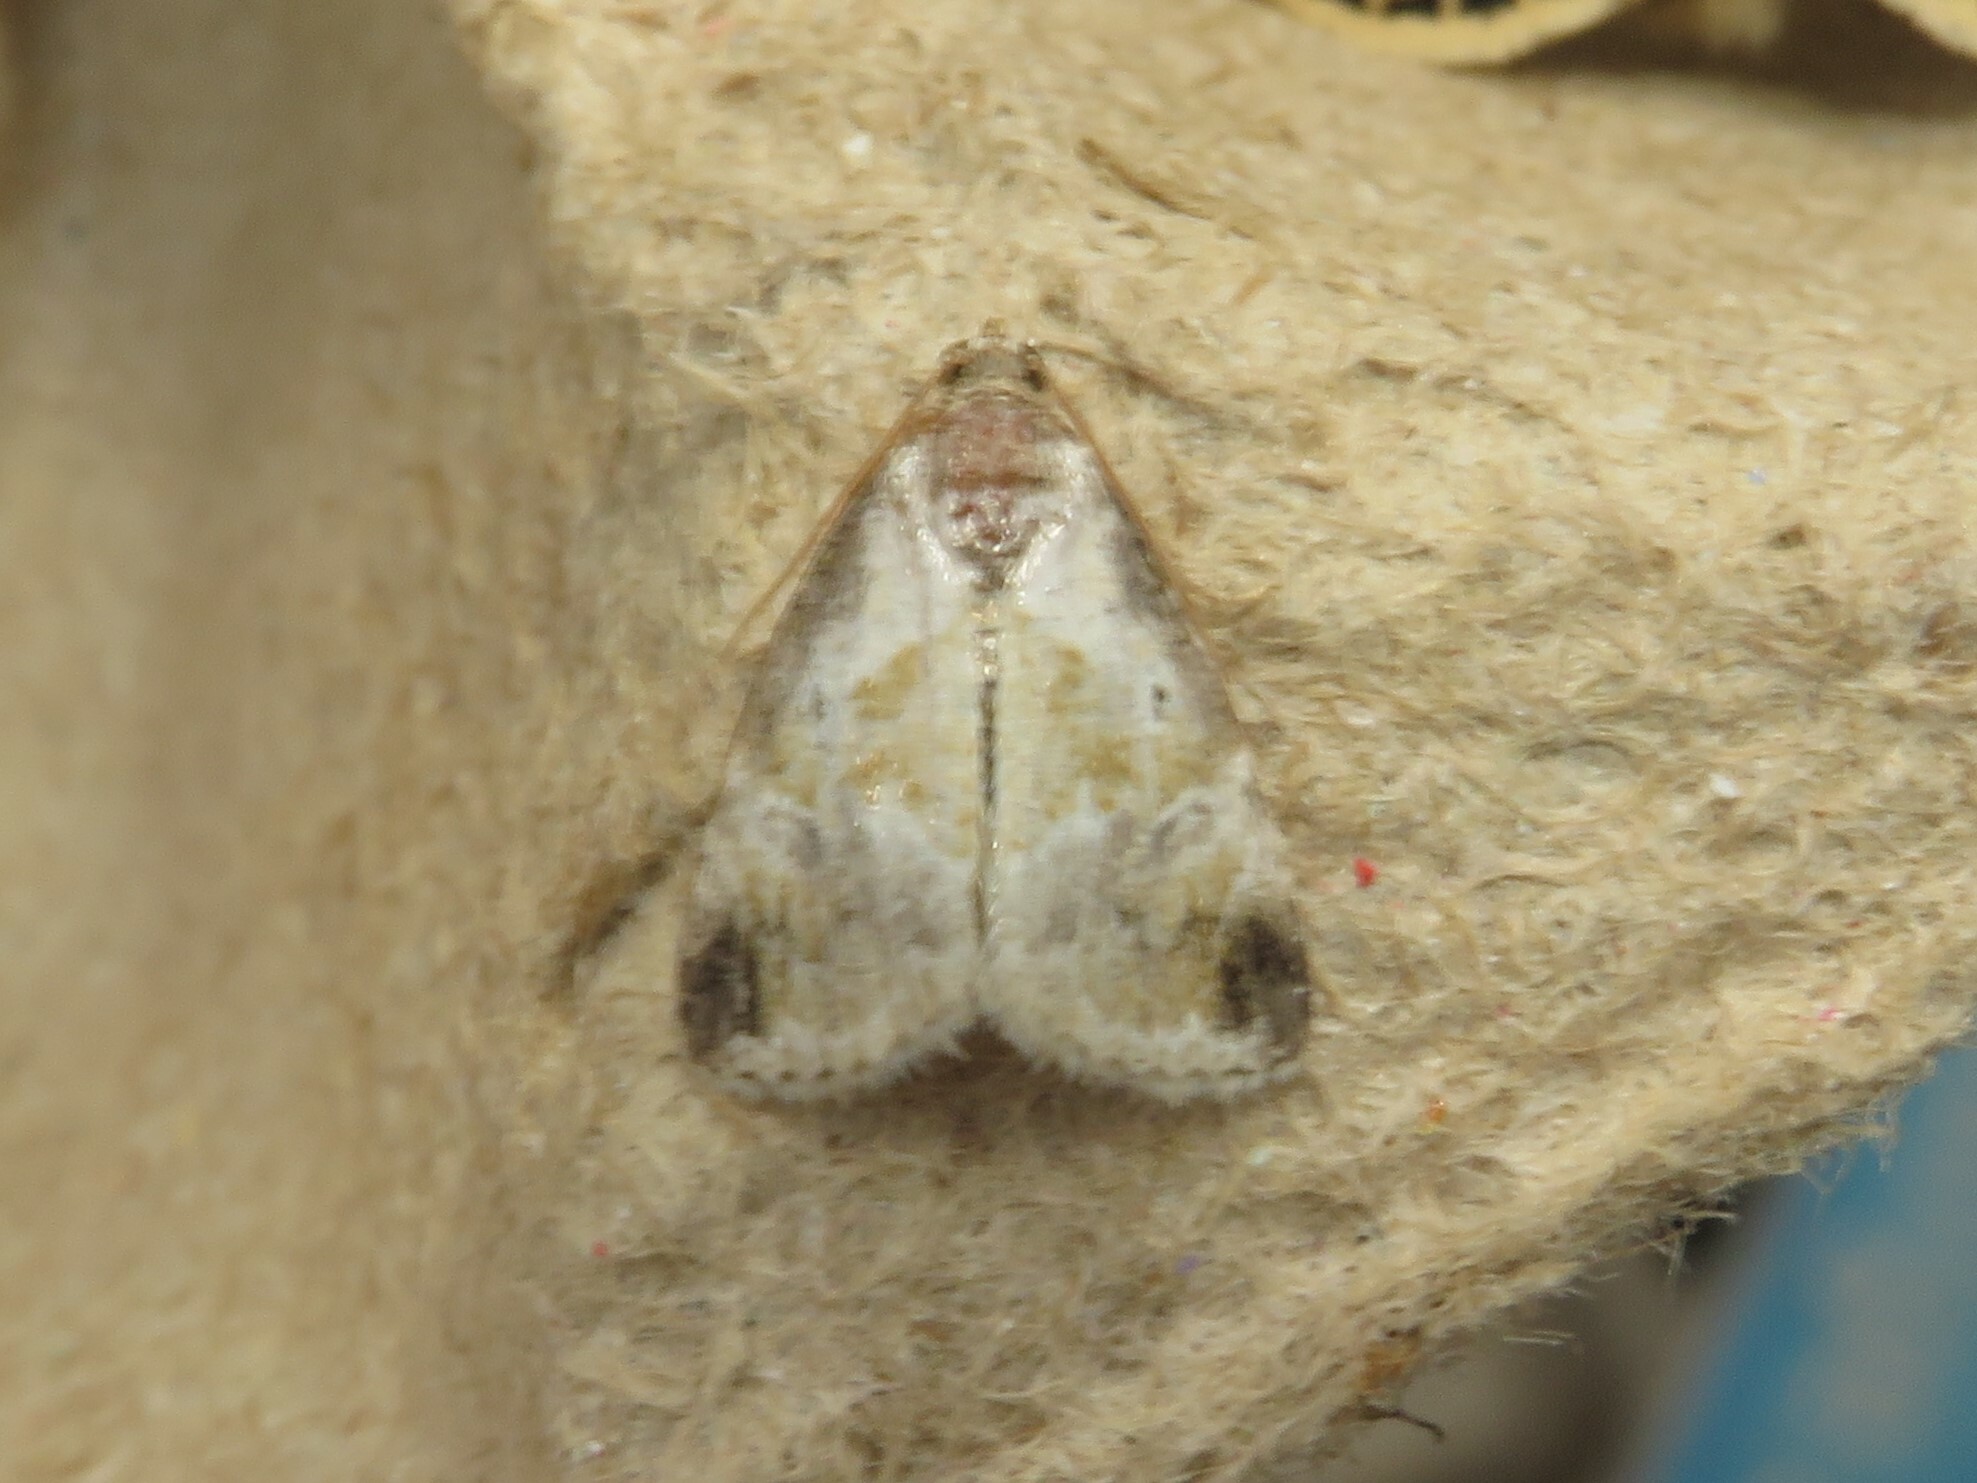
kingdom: Animalia
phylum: Arthropoda
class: Insecta
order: Lepidoptera
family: Noctuidae
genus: Maliattha
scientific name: Maliattha synochitis
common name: Black-dotted glyph
